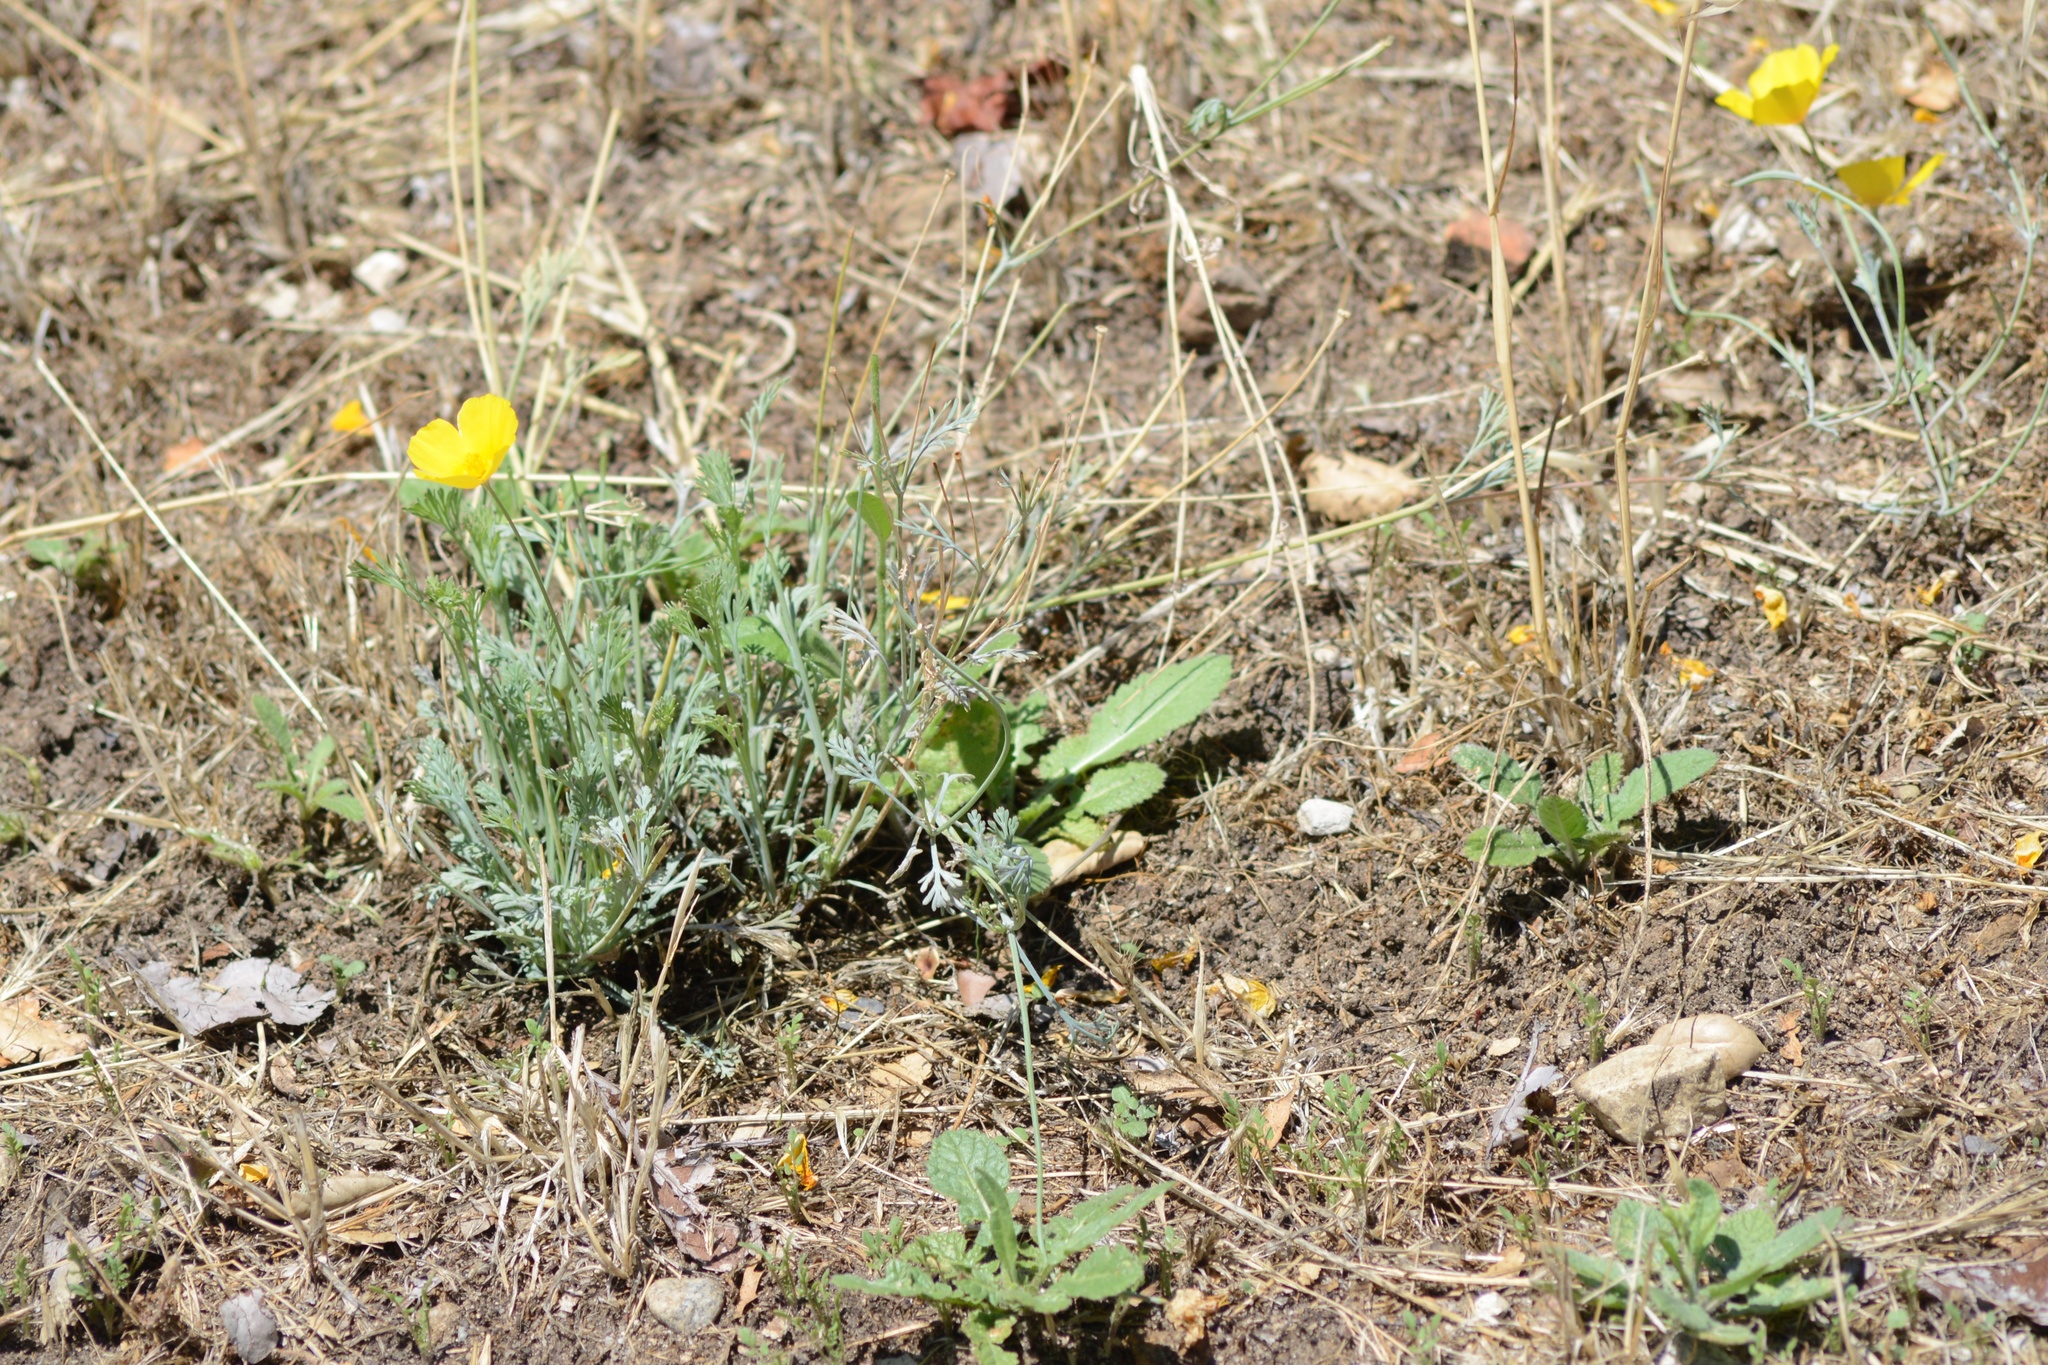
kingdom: Plantae
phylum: Tracheophyta
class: Magnoliopsida
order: Ranunculales
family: Papaveraceae
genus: Eschscholzia
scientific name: Eschscholzia californica
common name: California poppy
